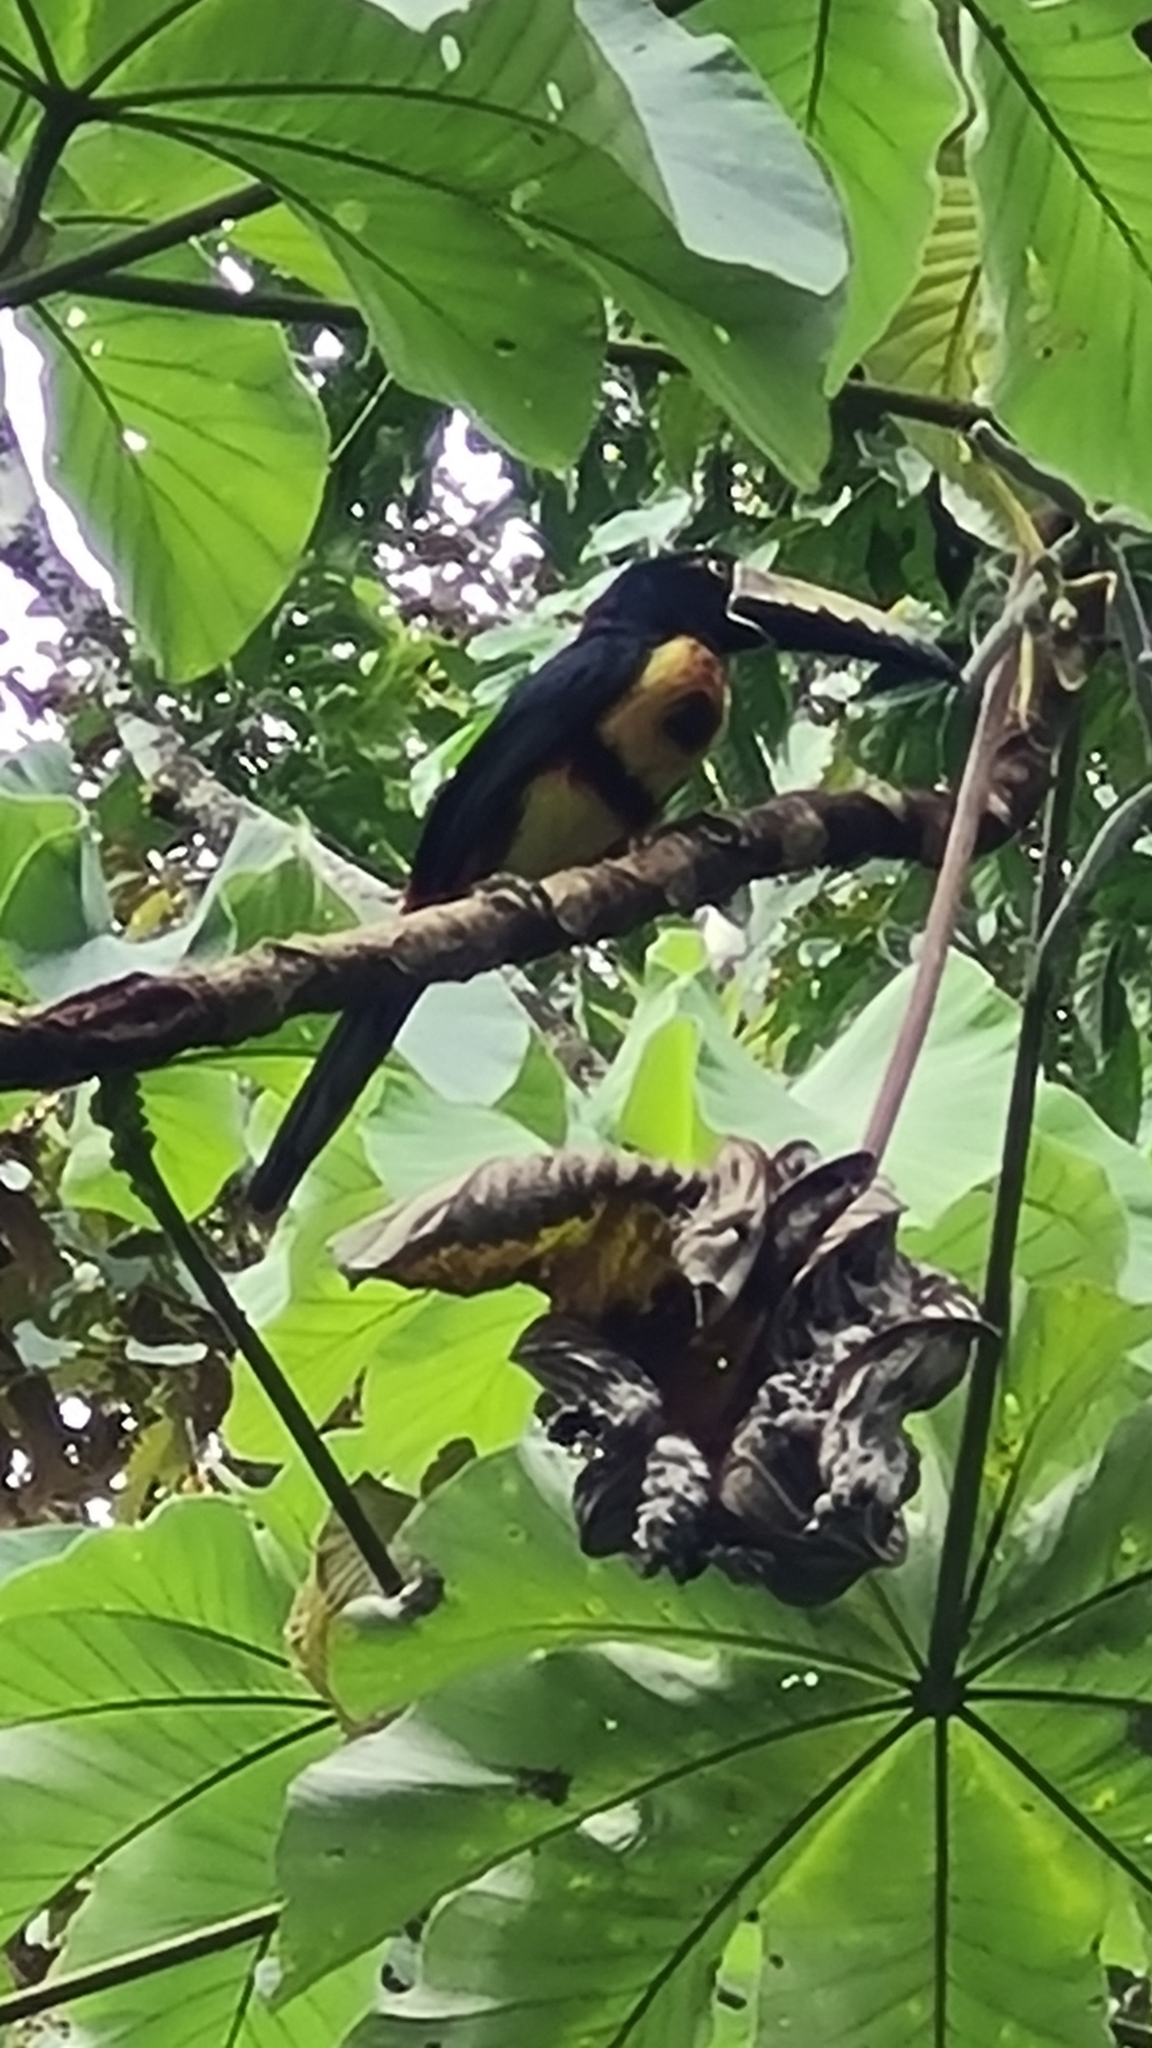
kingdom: Animalia
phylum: Chordata
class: Aves
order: Piciformes
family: Ramphastidae
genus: Pteroglossus
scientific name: Pteroglossus torquatus
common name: Collared aracari
